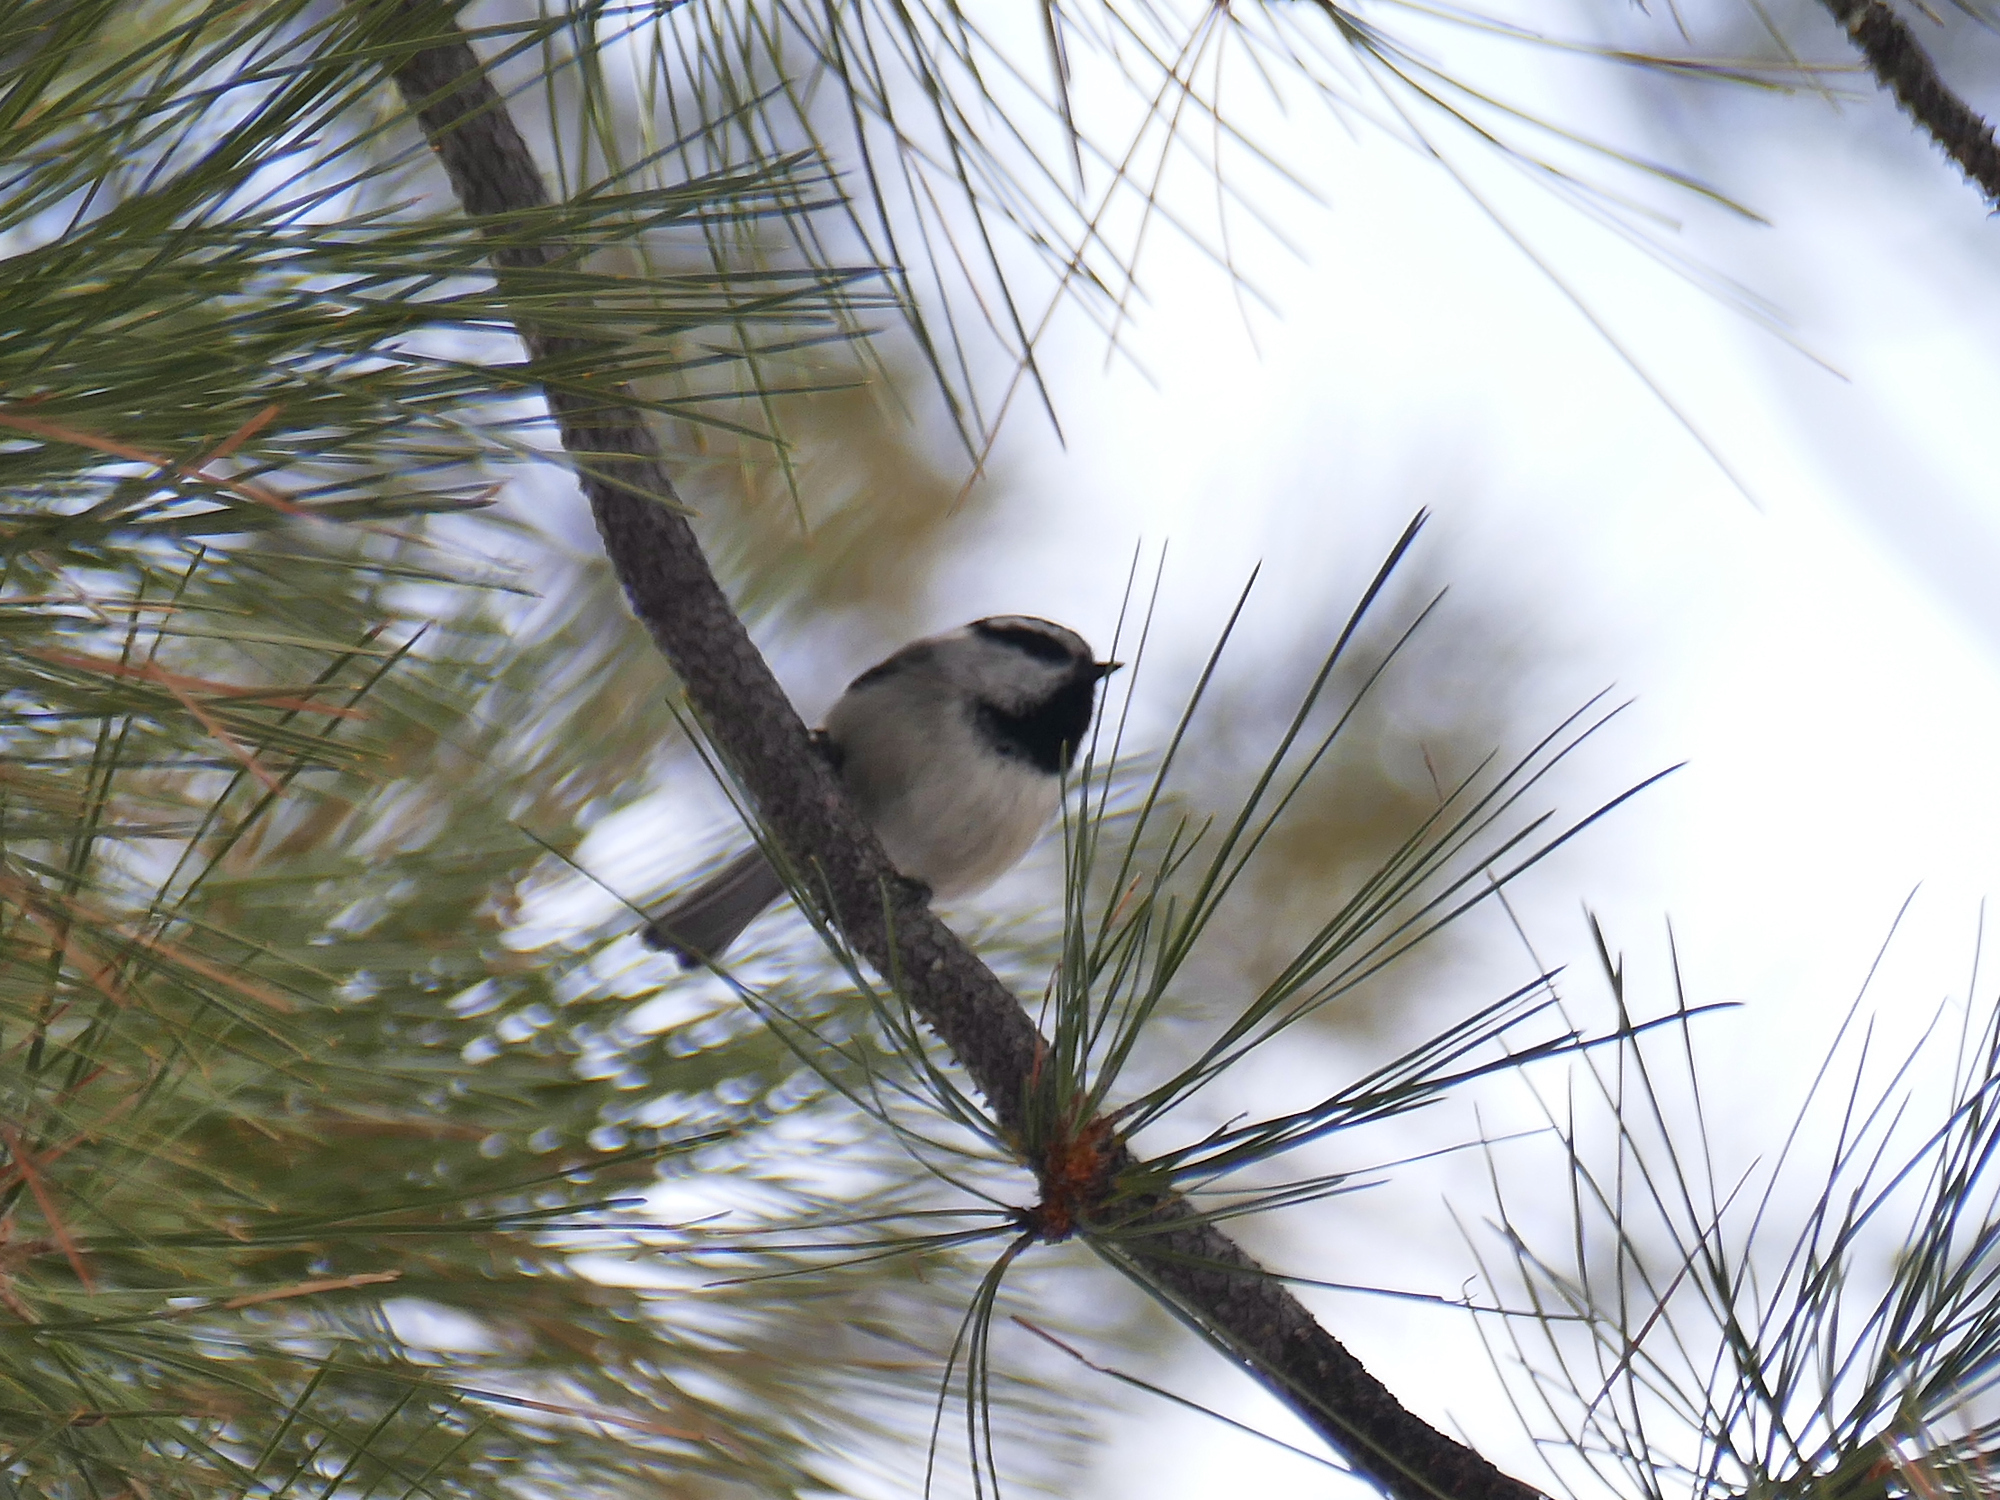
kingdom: Animalia
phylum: Chordata
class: Aves
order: Passeriformes
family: Paridae
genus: Poecile
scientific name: Poecile gambeli
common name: Mountain chickadee
